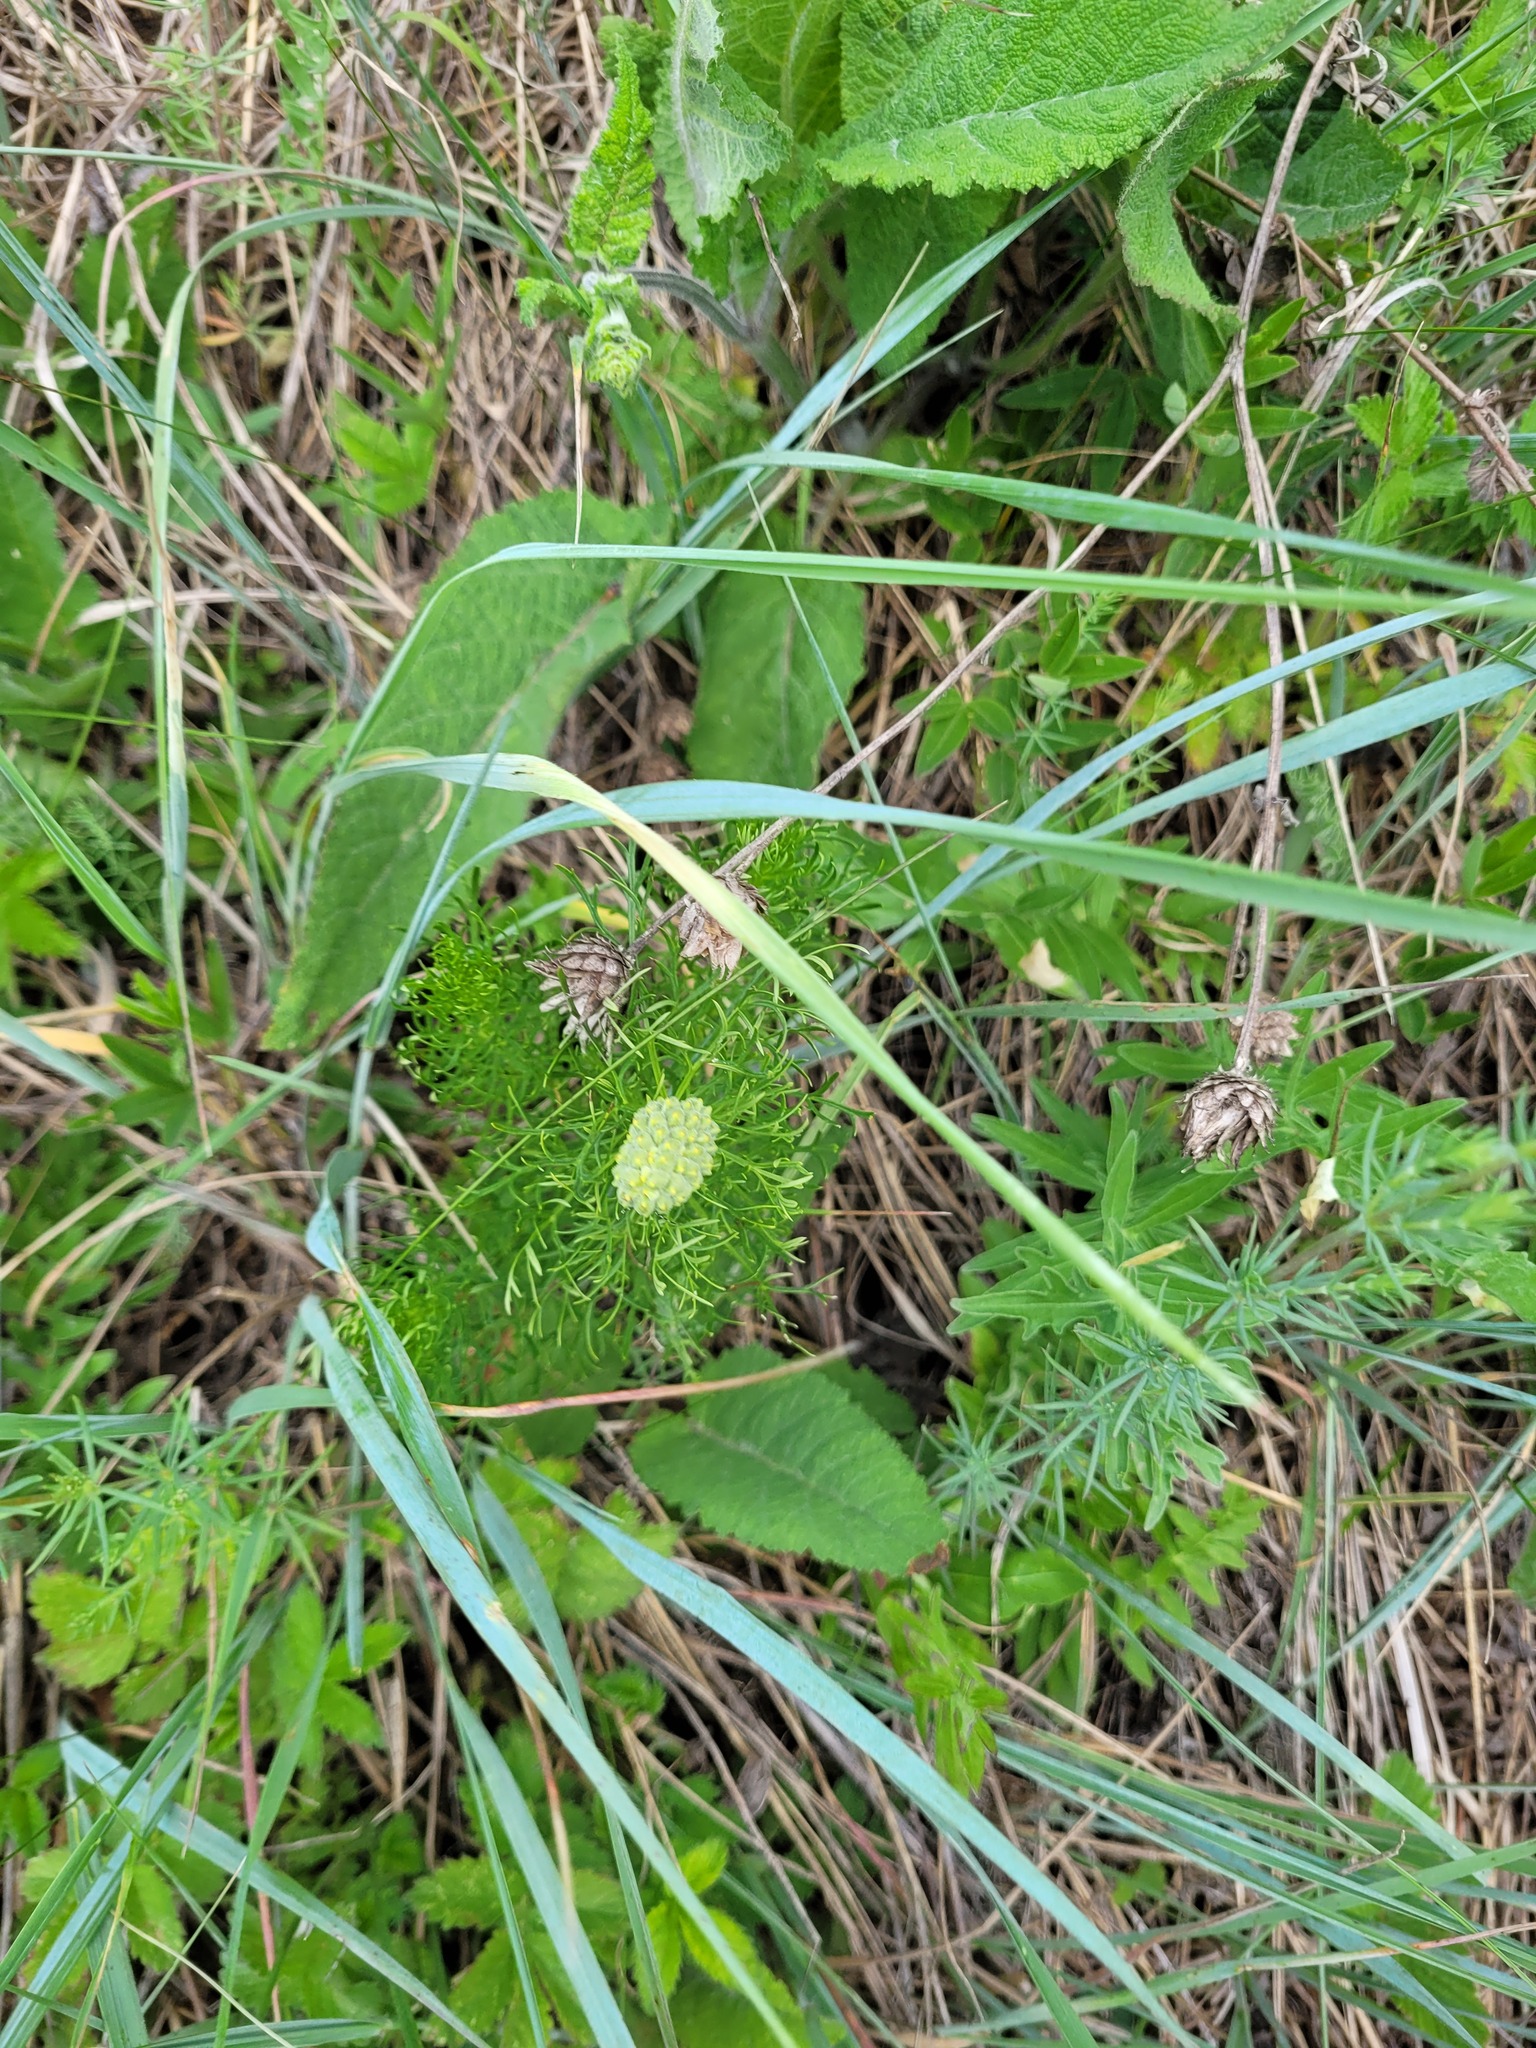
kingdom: Plantae
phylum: Tracheophyta
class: Magnoliopsida
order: Ranunculales
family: Ranunculaceae
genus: Adonis
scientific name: Adonis vernalis
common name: Yellow pheasants-eye
